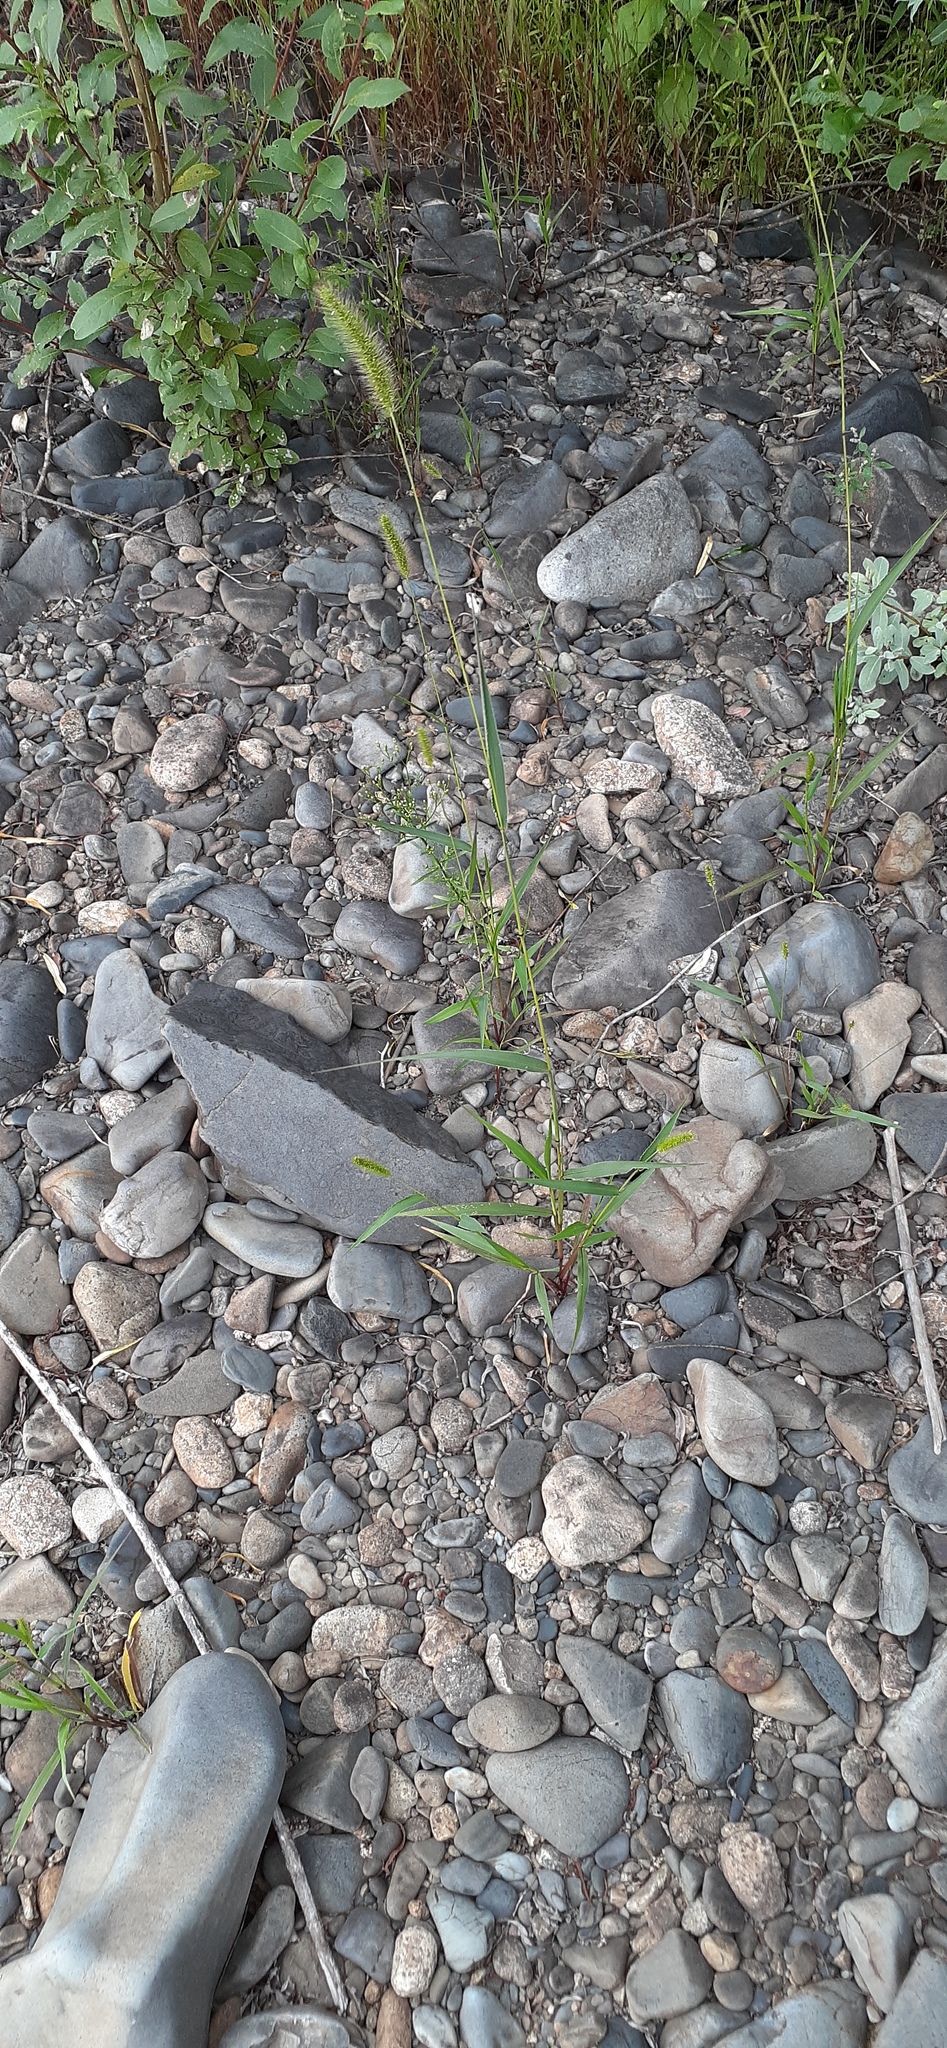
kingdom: Plantae
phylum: Tracheophyta
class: Liliopsida
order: Poales
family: Poaceae
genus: Setaria
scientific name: Setaria viridis
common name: Green bristlegrass
